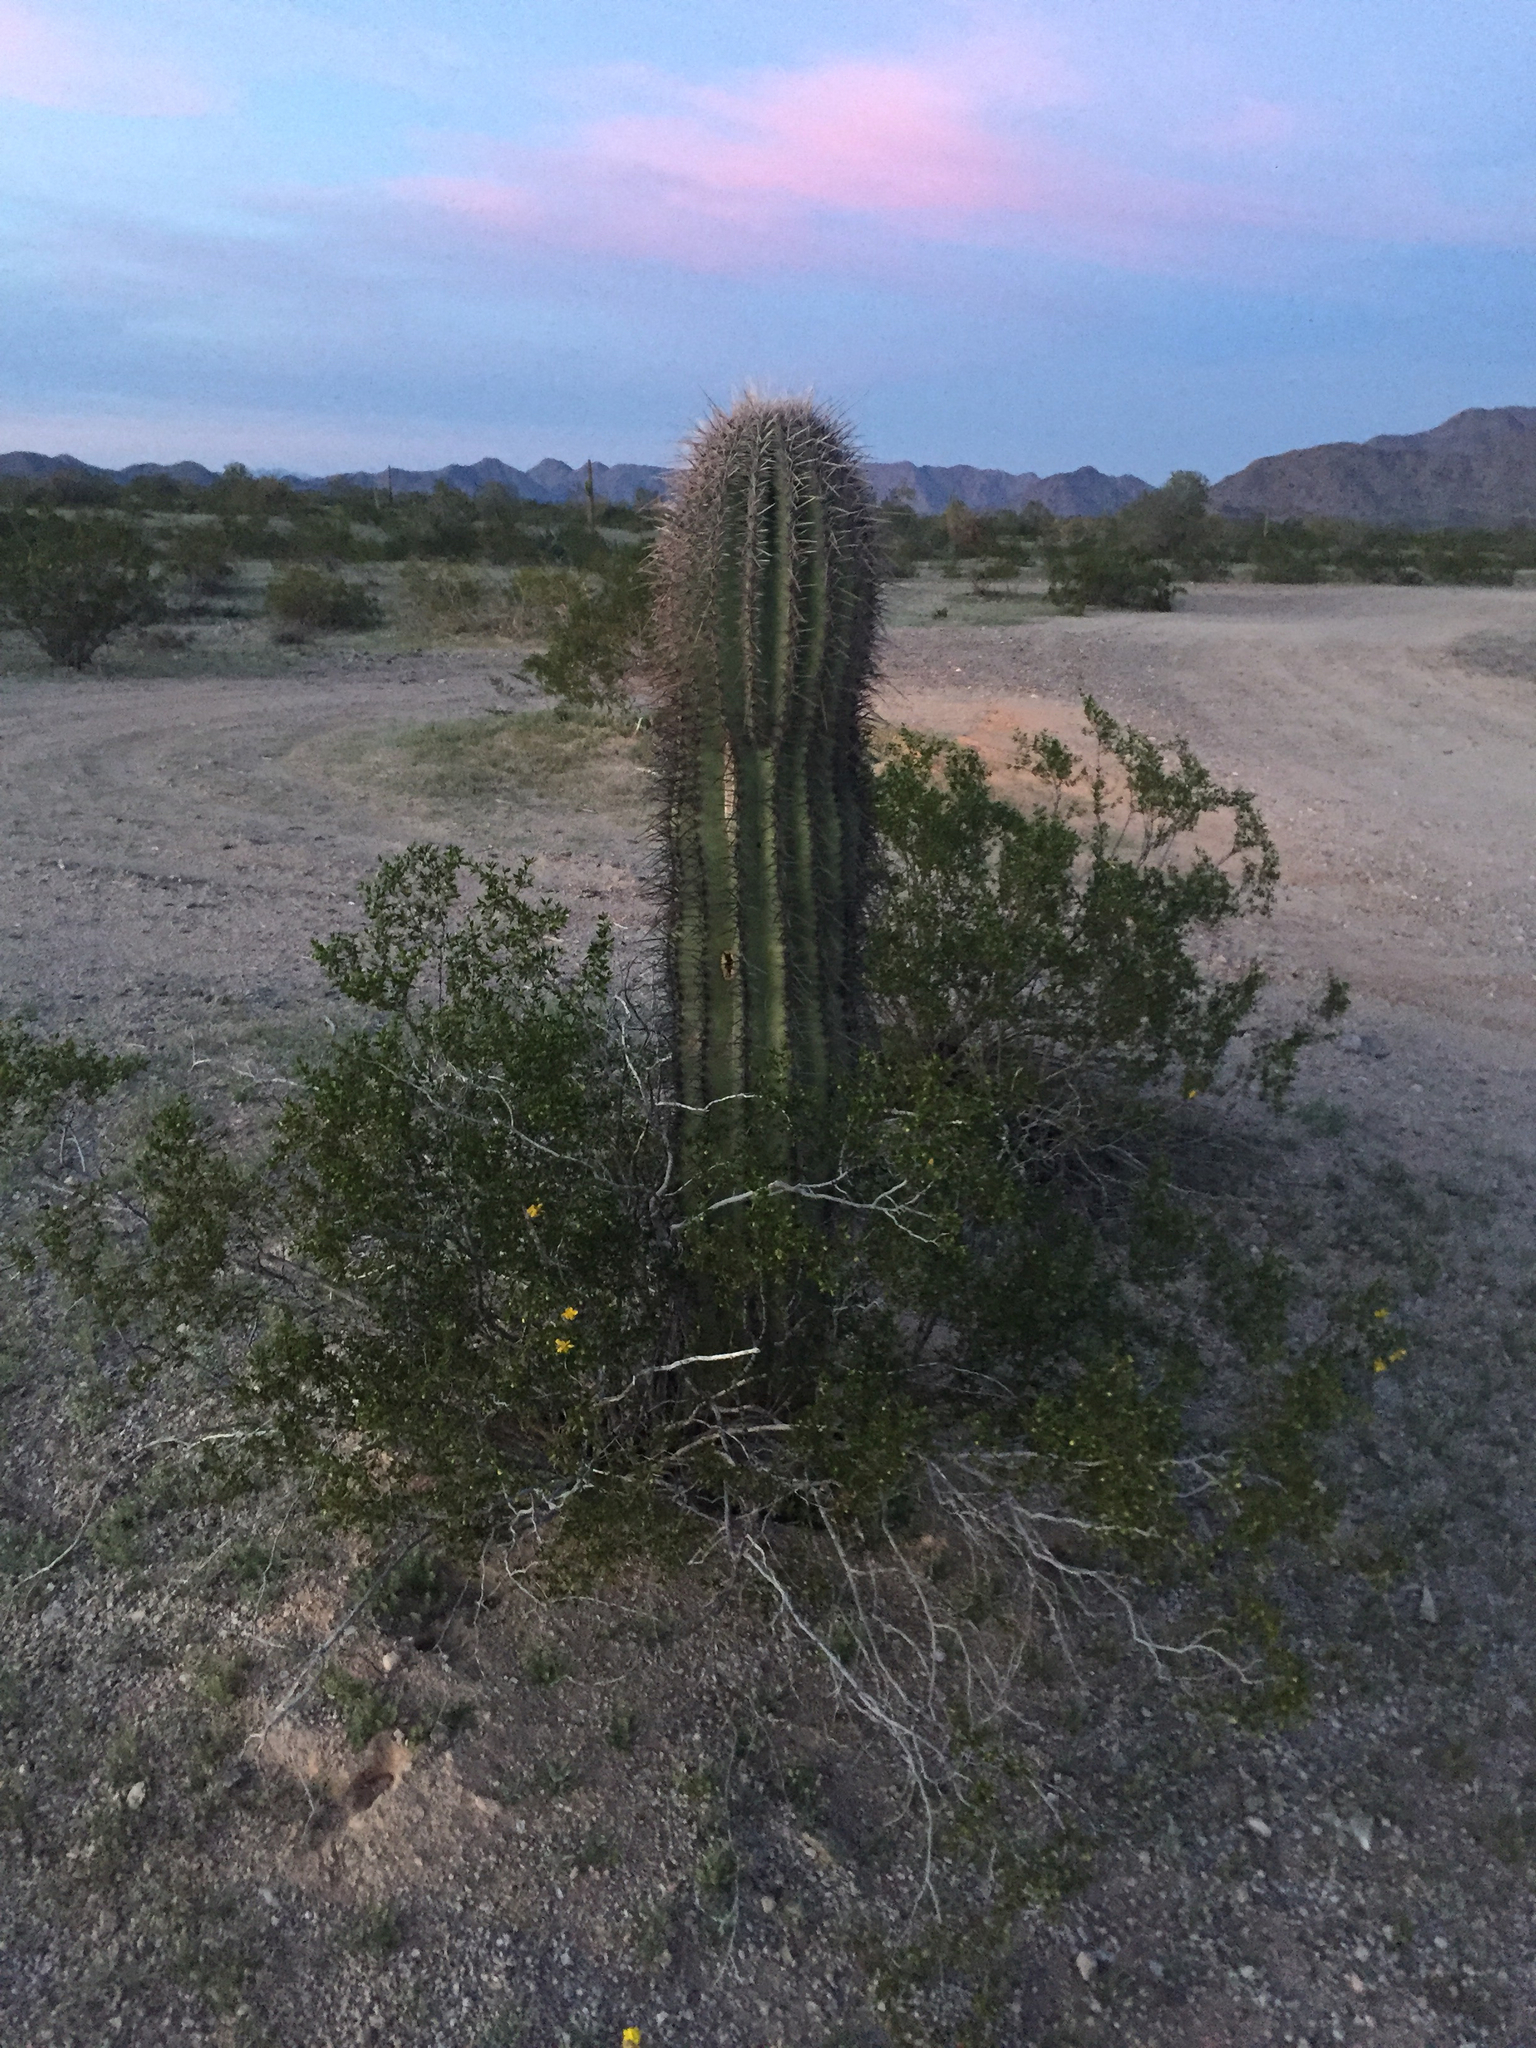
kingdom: Plantae
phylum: Tracheophyta
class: Magnoliopsida
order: Caryophyllales
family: Cactaceae
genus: Carnegiea
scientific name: Carnegiea gigantea
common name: Saguaro
